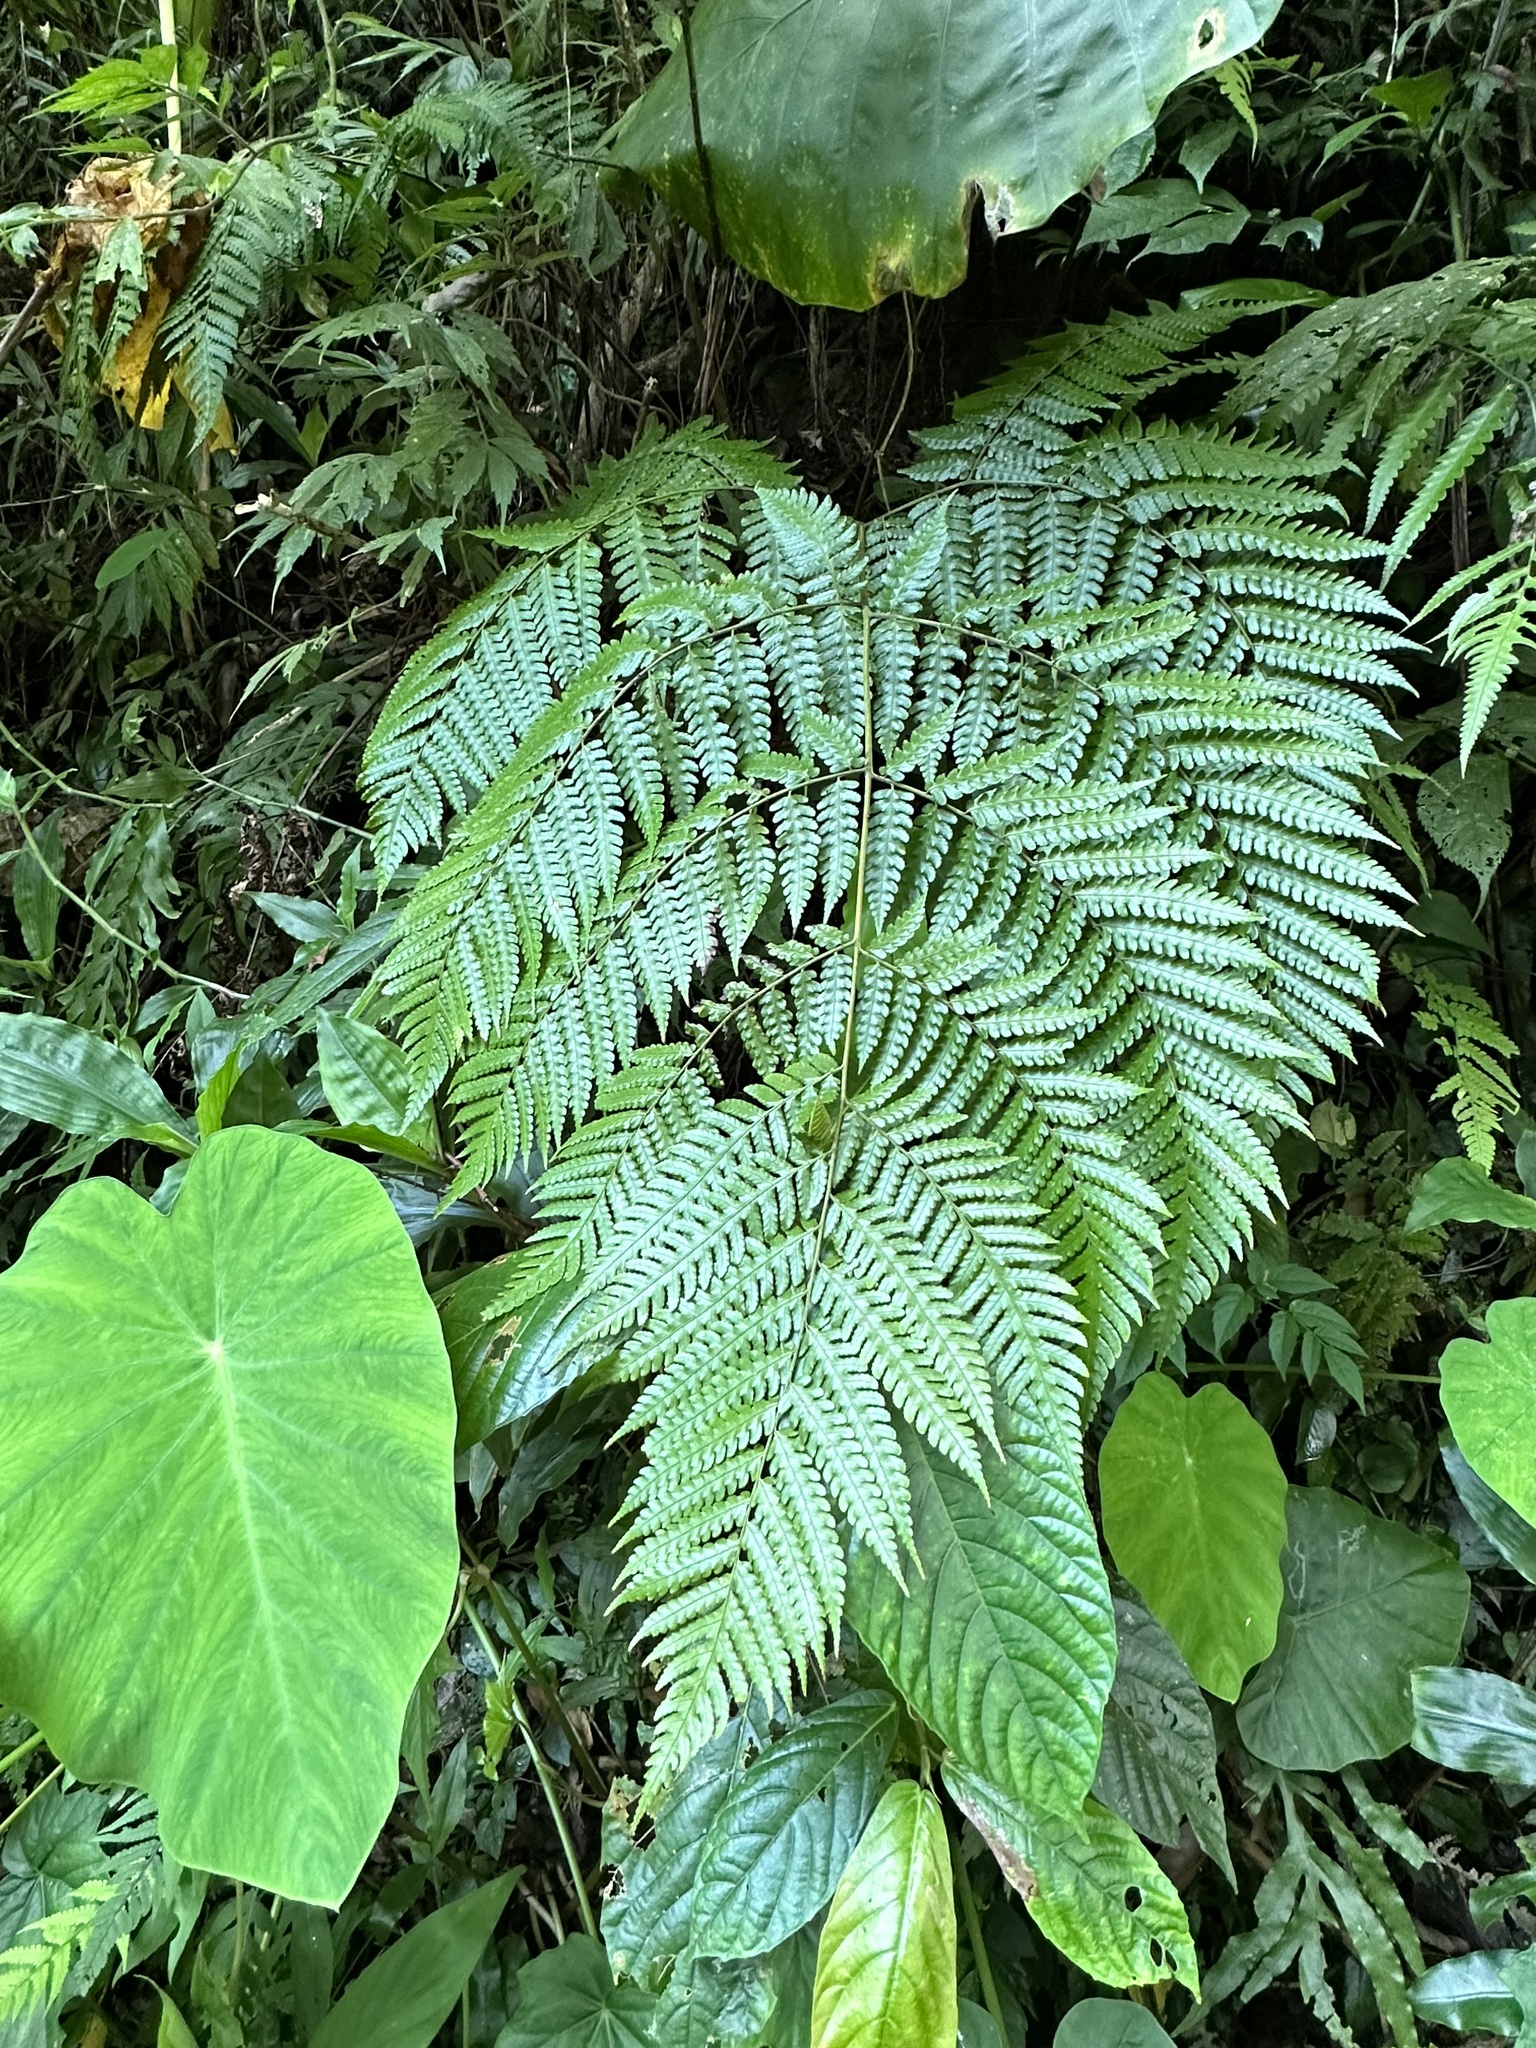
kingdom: Plantae
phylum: Tracheophyta
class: Polypodiopsida
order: Polypodiales
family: Dryopteridaceae
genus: Pleocnemia
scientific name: Pleocnemia submembranacea
